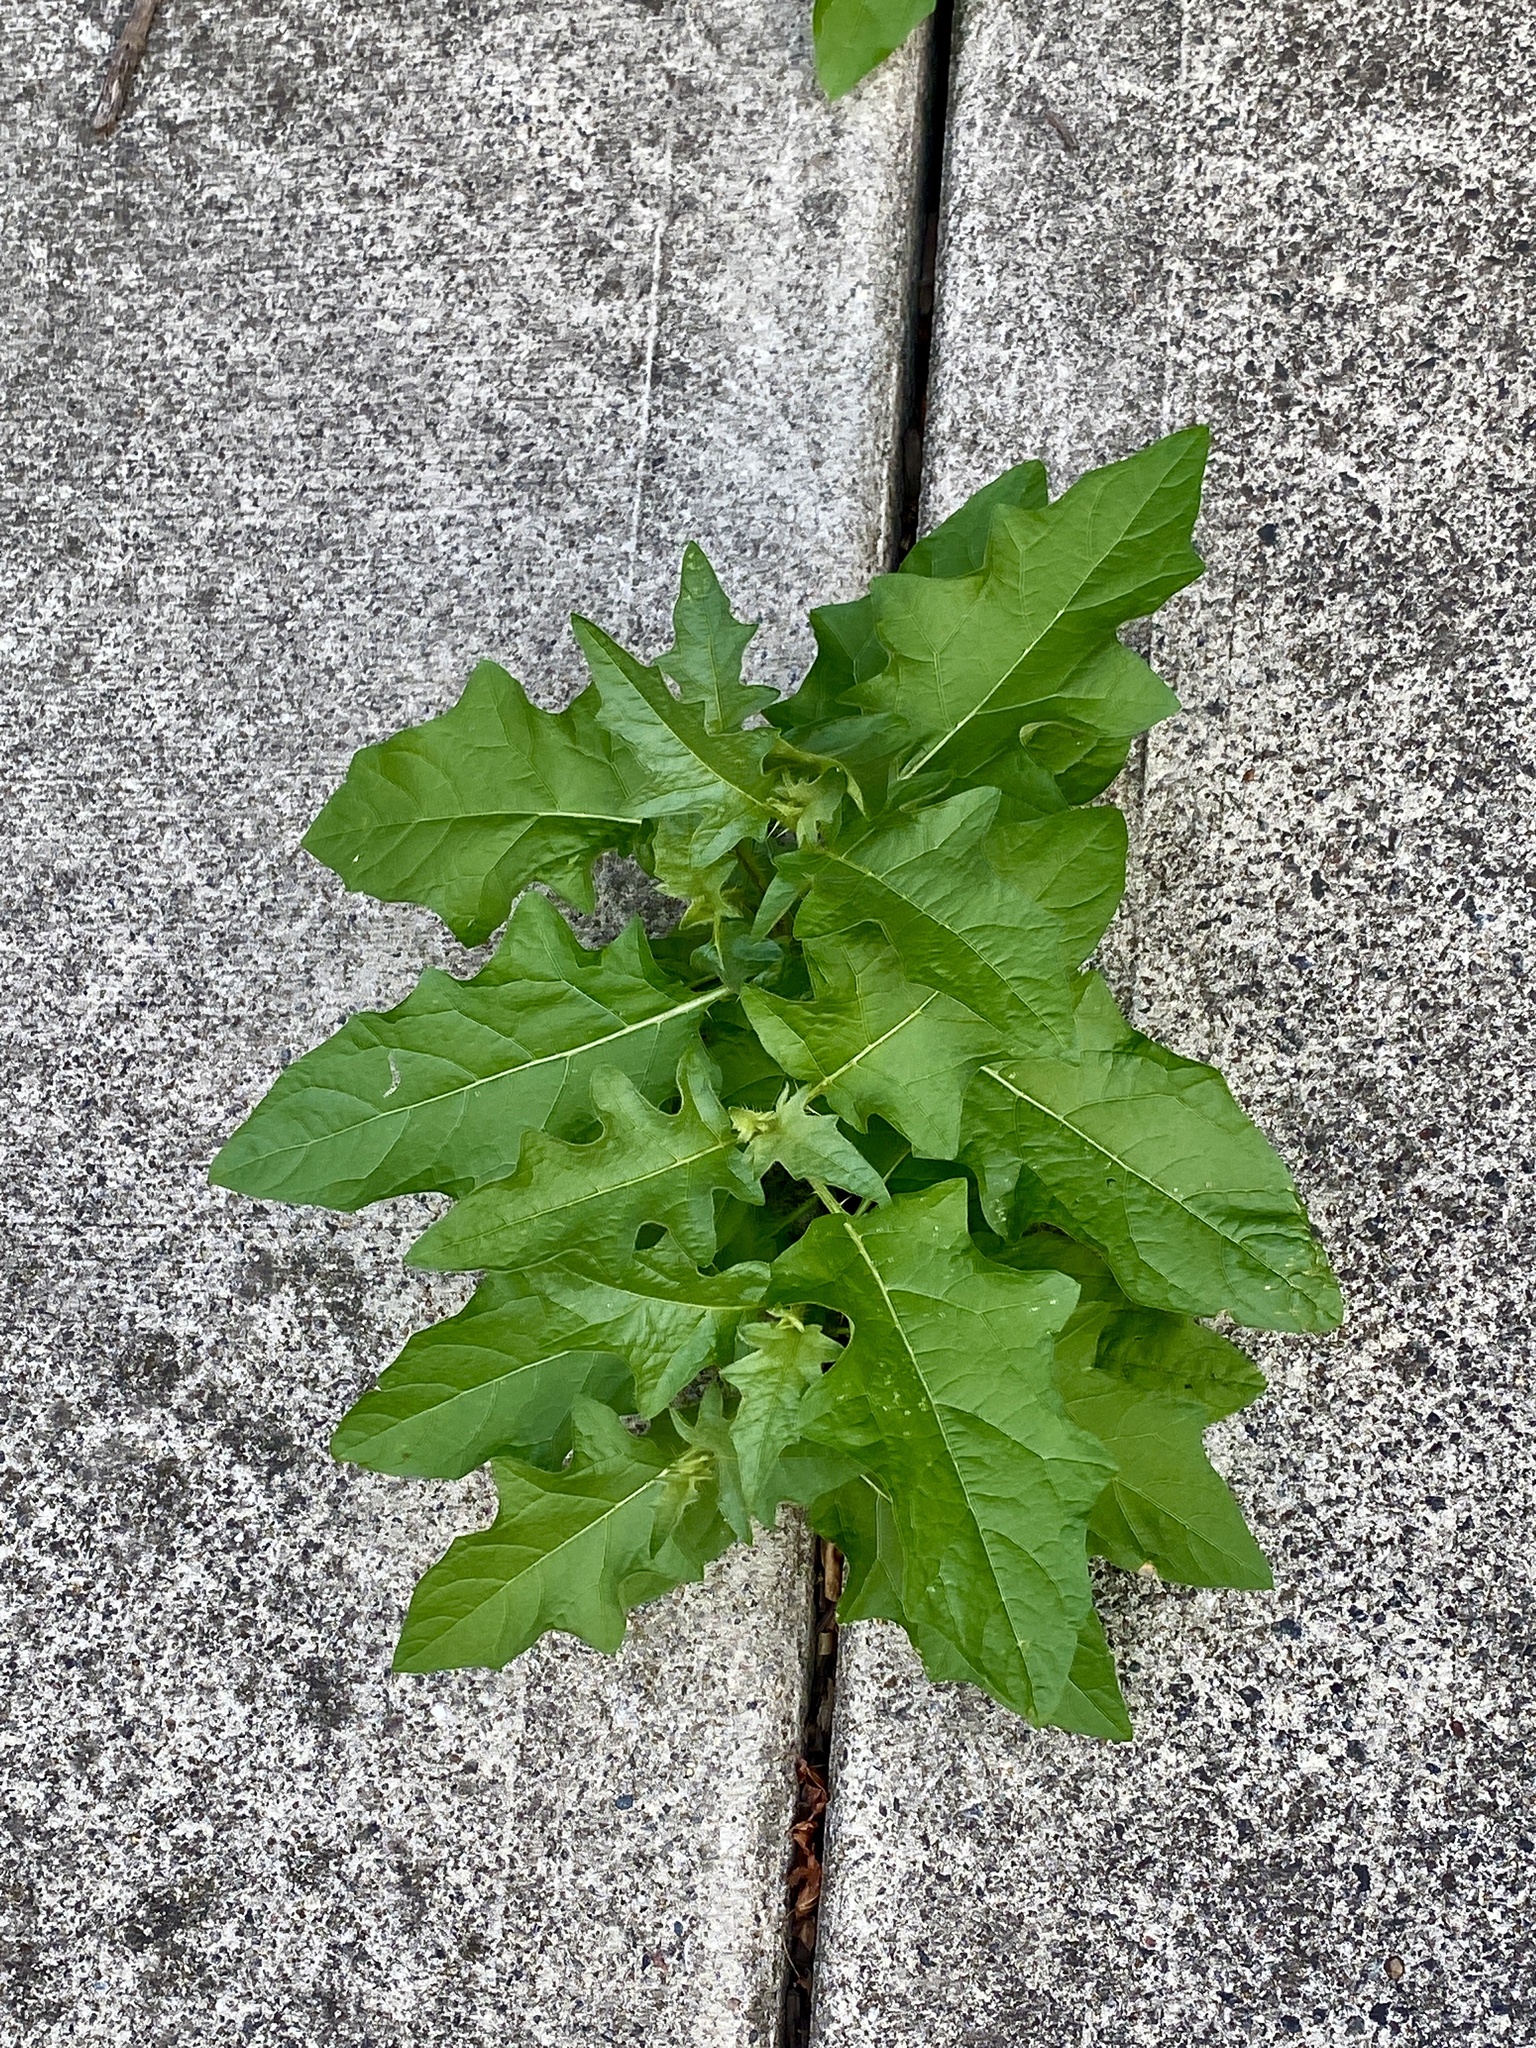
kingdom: Plantae
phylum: Tracheophyta
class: Magnoliopsida
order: Solanales
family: Solanaceae
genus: Solanum
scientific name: Solanum carolinense
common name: Horse-nettle
